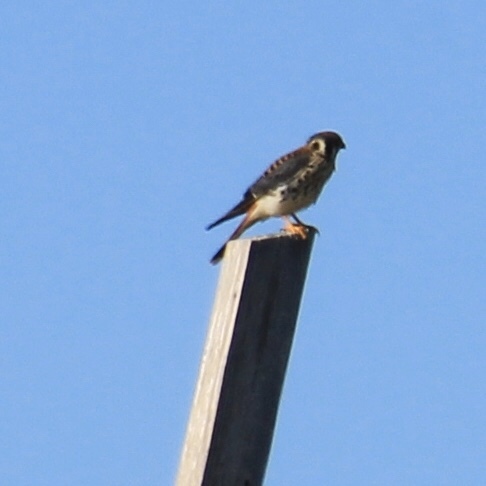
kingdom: Animalia
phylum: Chordata
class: Aves
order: Falconiformes
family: Falconidae
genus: Falco
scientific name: Falco sparverius
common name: American kestrel
